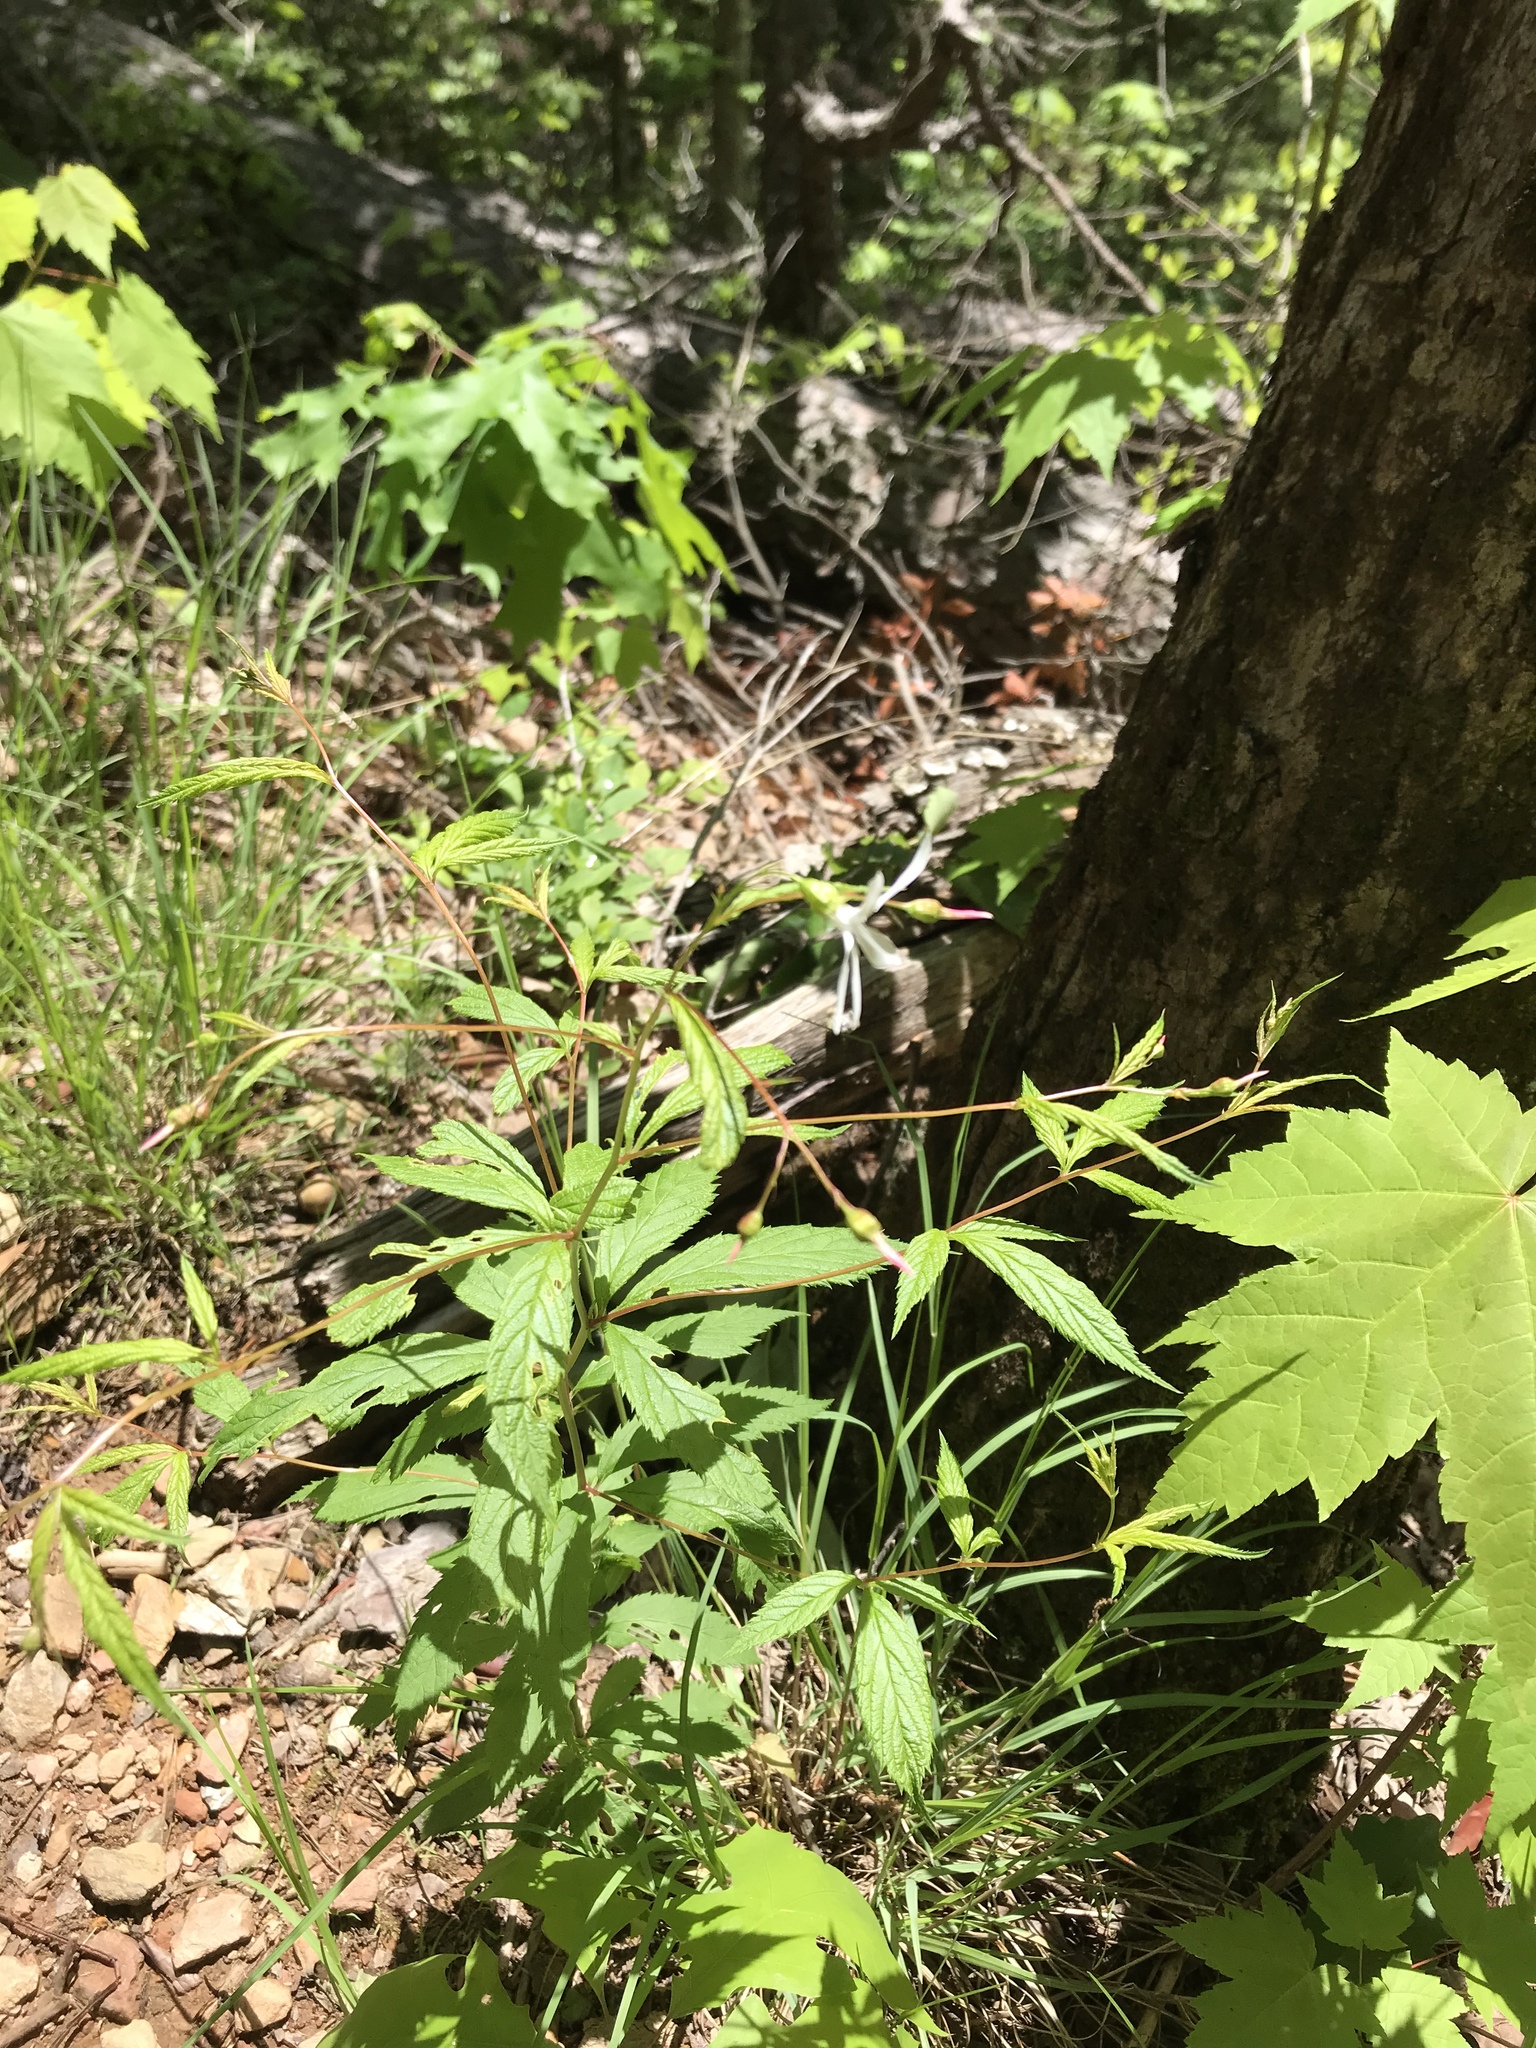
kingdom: Plantae
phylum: Tracheophyta
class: Magnoliopsida
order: Rosales
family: Rosaceae
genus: Gillenia
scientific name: Gillenia trifoliata
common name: Bowman's-root
